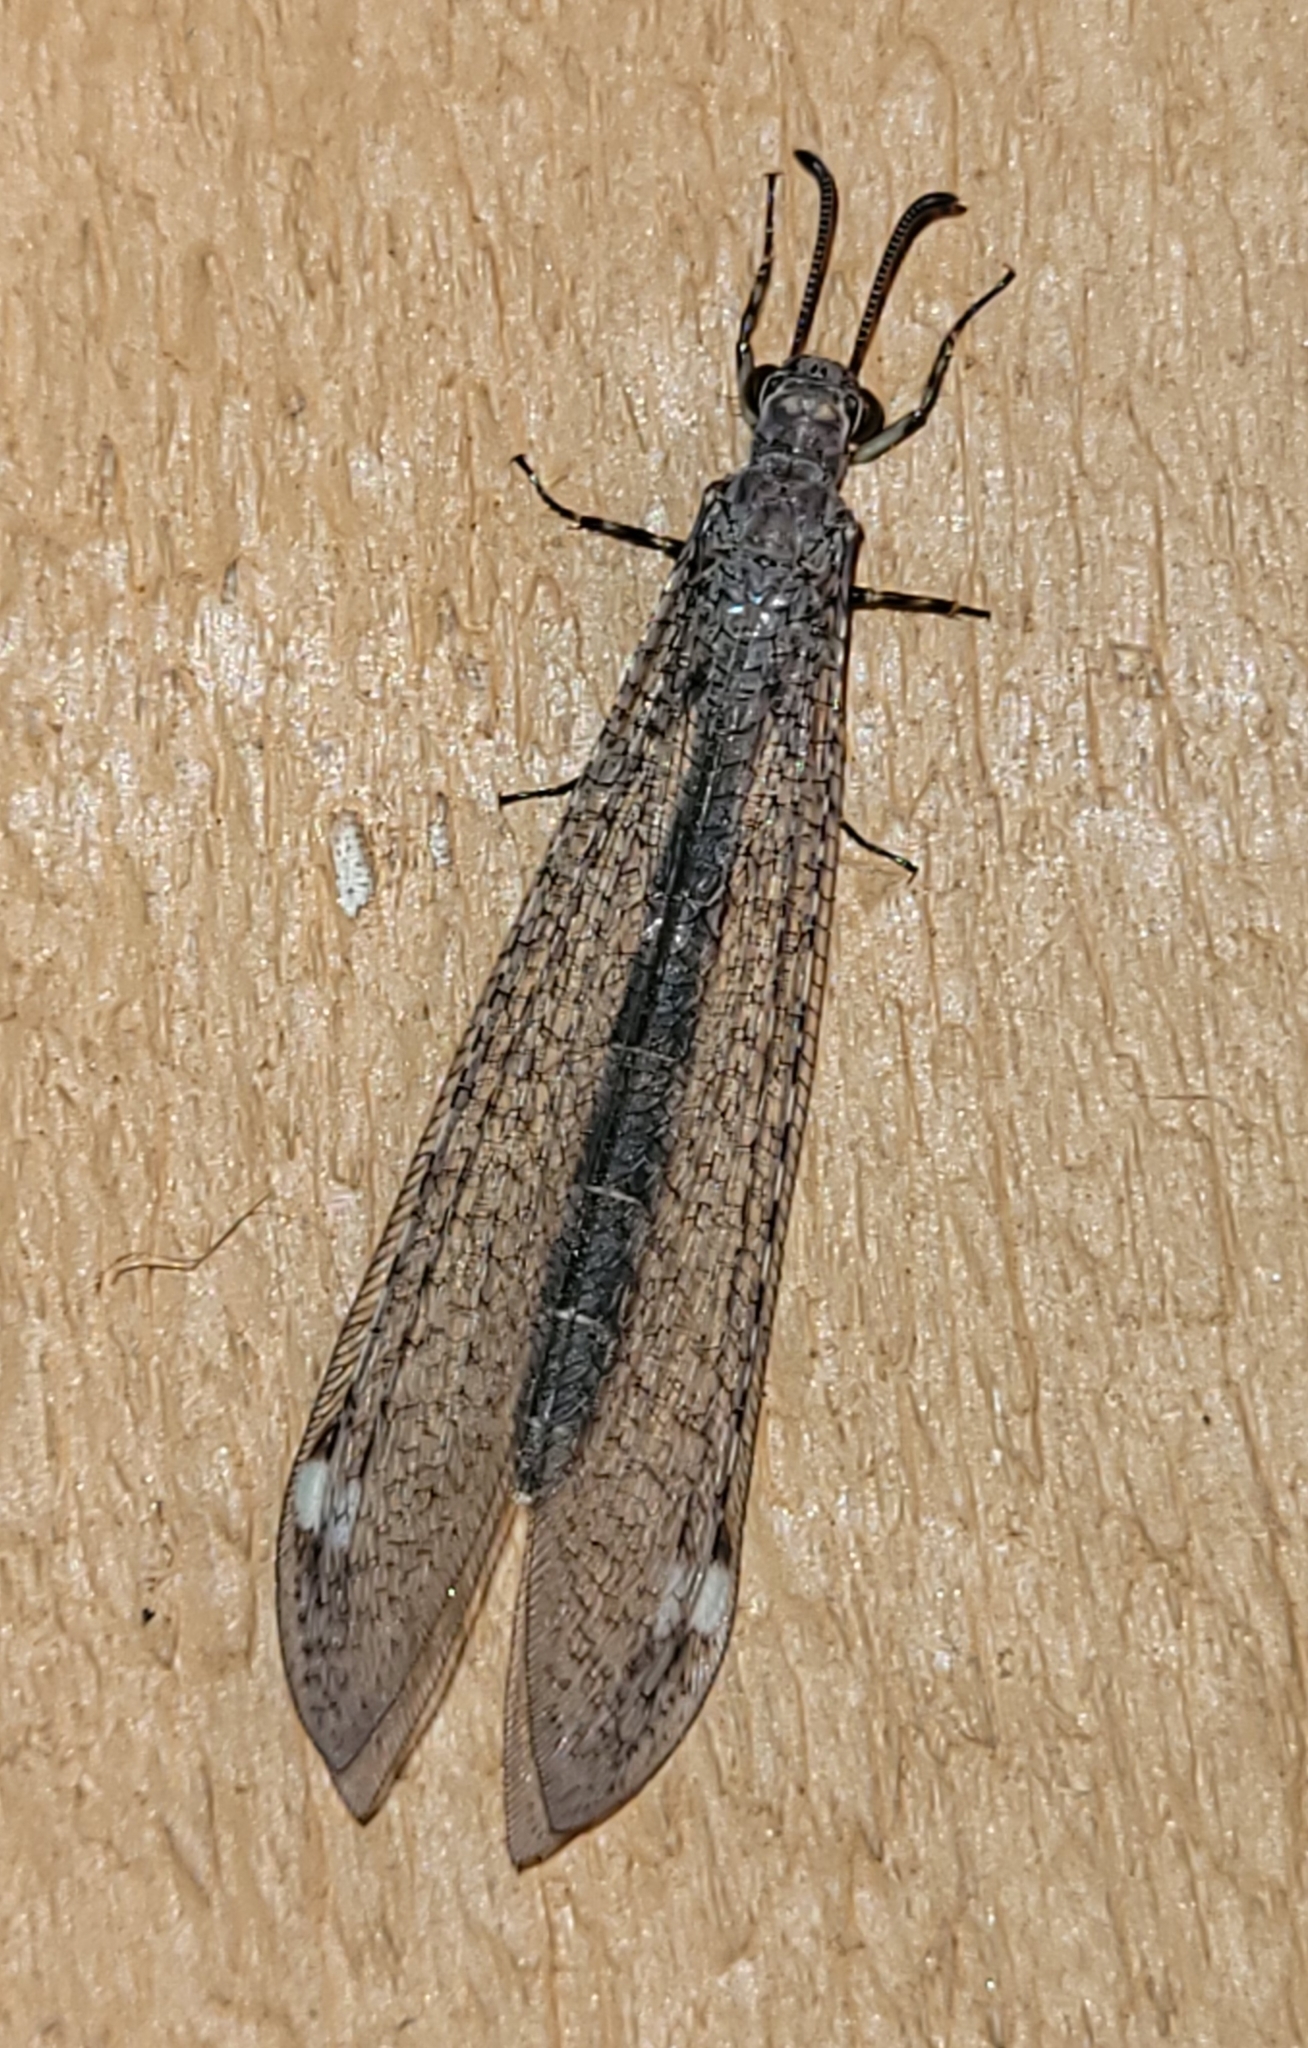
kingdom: Animalia
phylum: Arthropoda
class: Insecta
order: Neuroptera
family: Myrmeleontidae
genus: Myrmeleon
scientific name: Myrmeleon immaculatus
